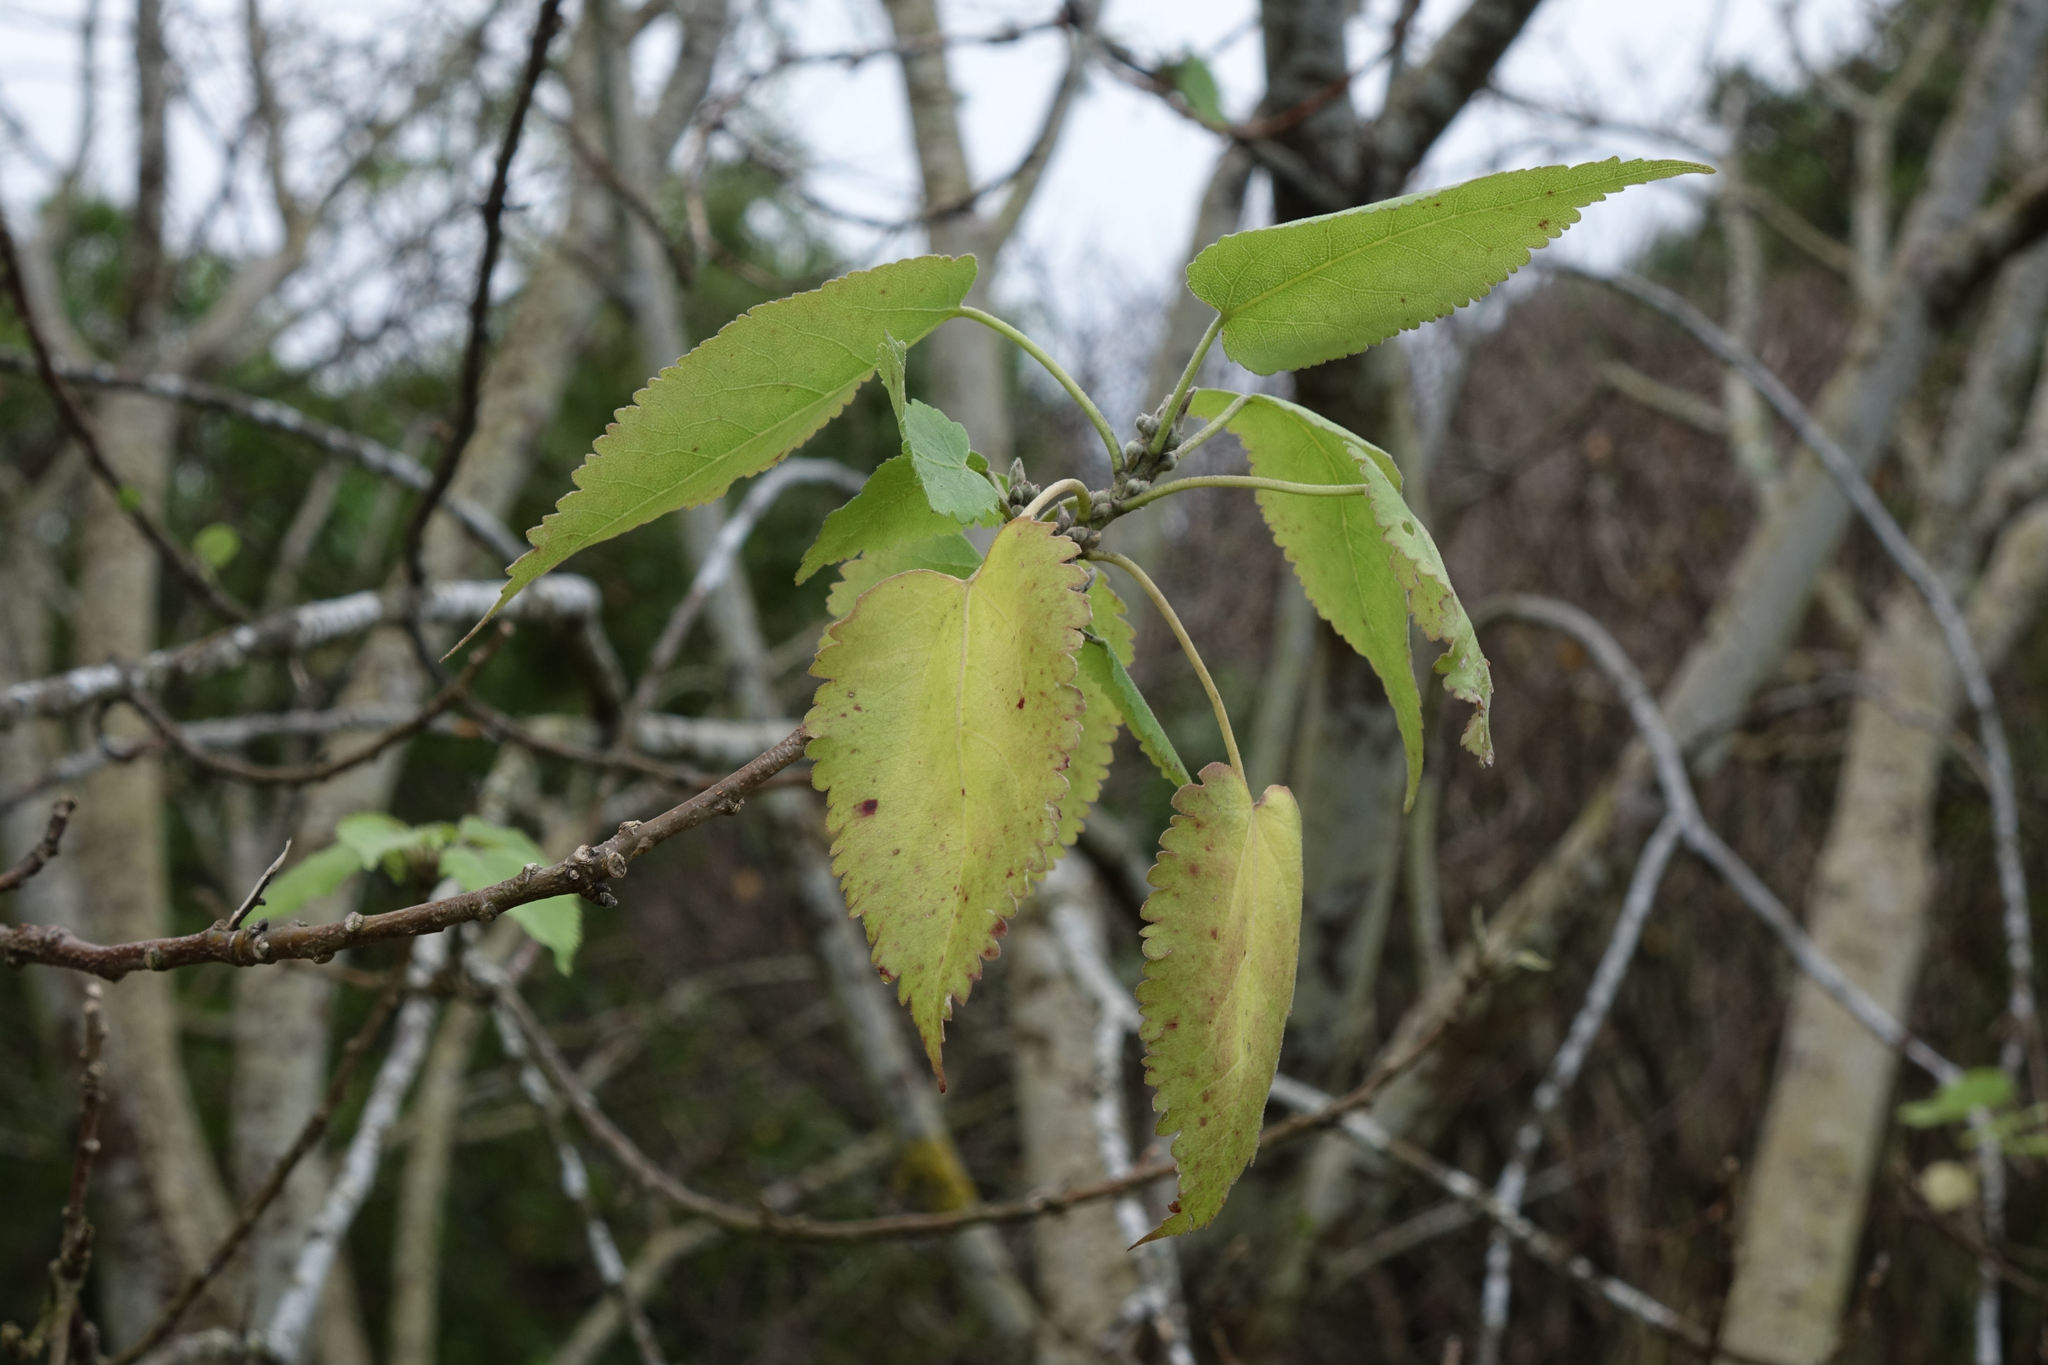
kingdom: Plantae
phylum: Tracheophyta
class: Magnoliopsida
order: Santalales
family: Loranthaceae
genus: Ileostylus
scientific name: Ileostylus micranthus
